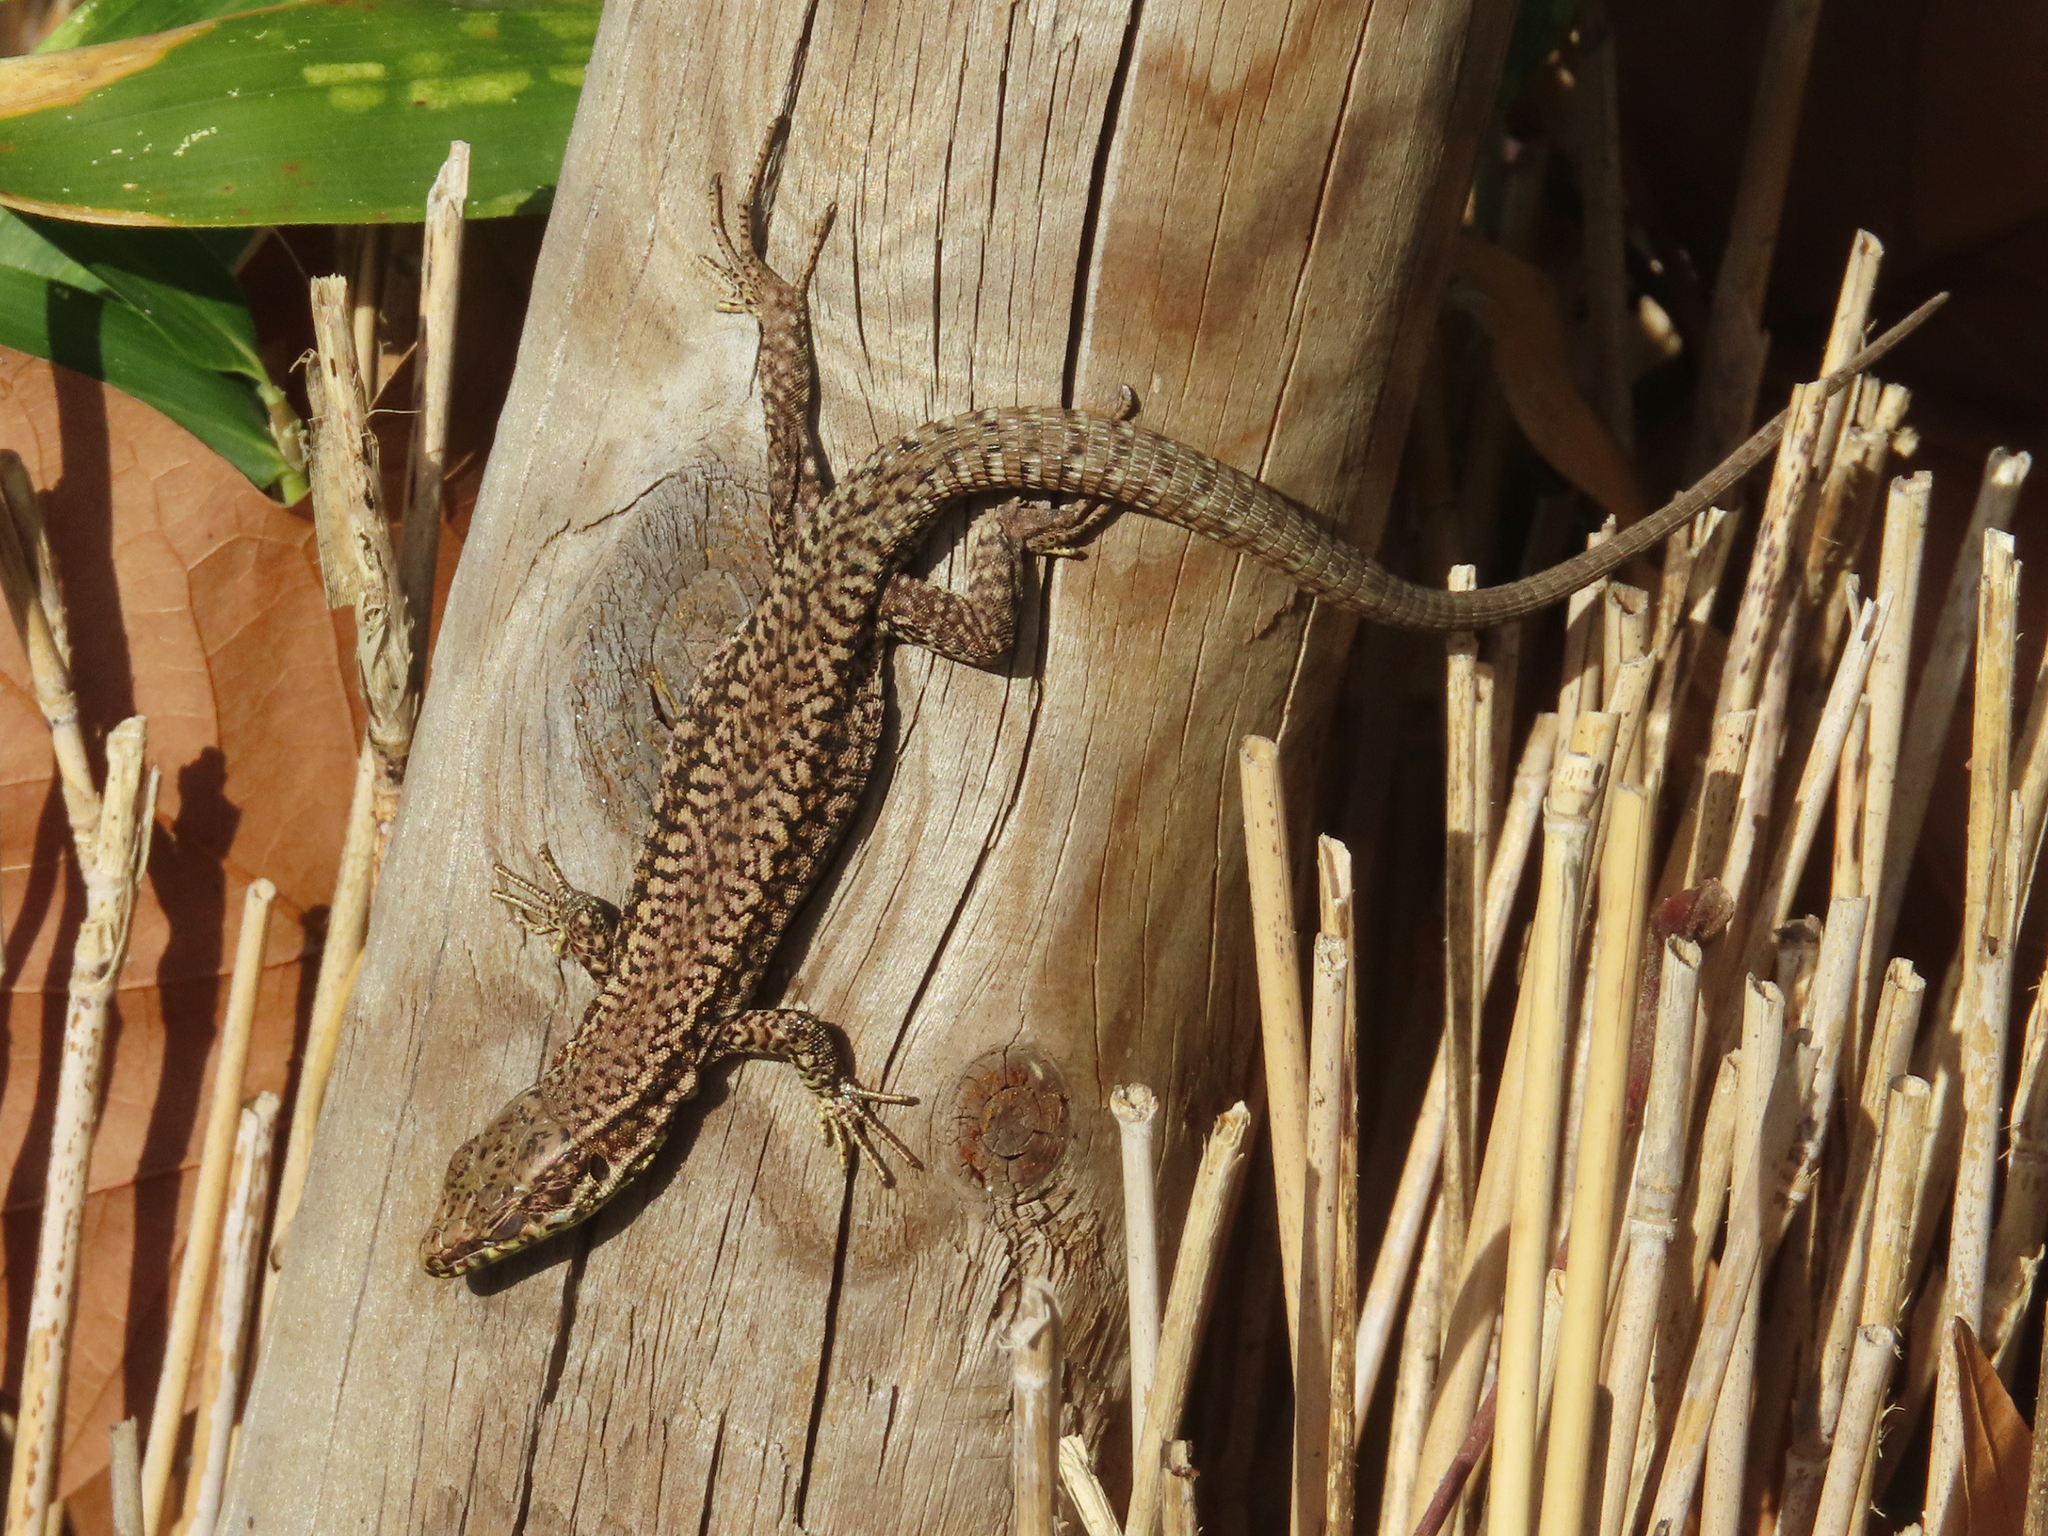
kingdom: Animalia
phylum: Chordata
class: Squamata
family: Lacertidae
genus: Podarcis
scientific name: Podarcis muralis
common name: Common wall lizard
